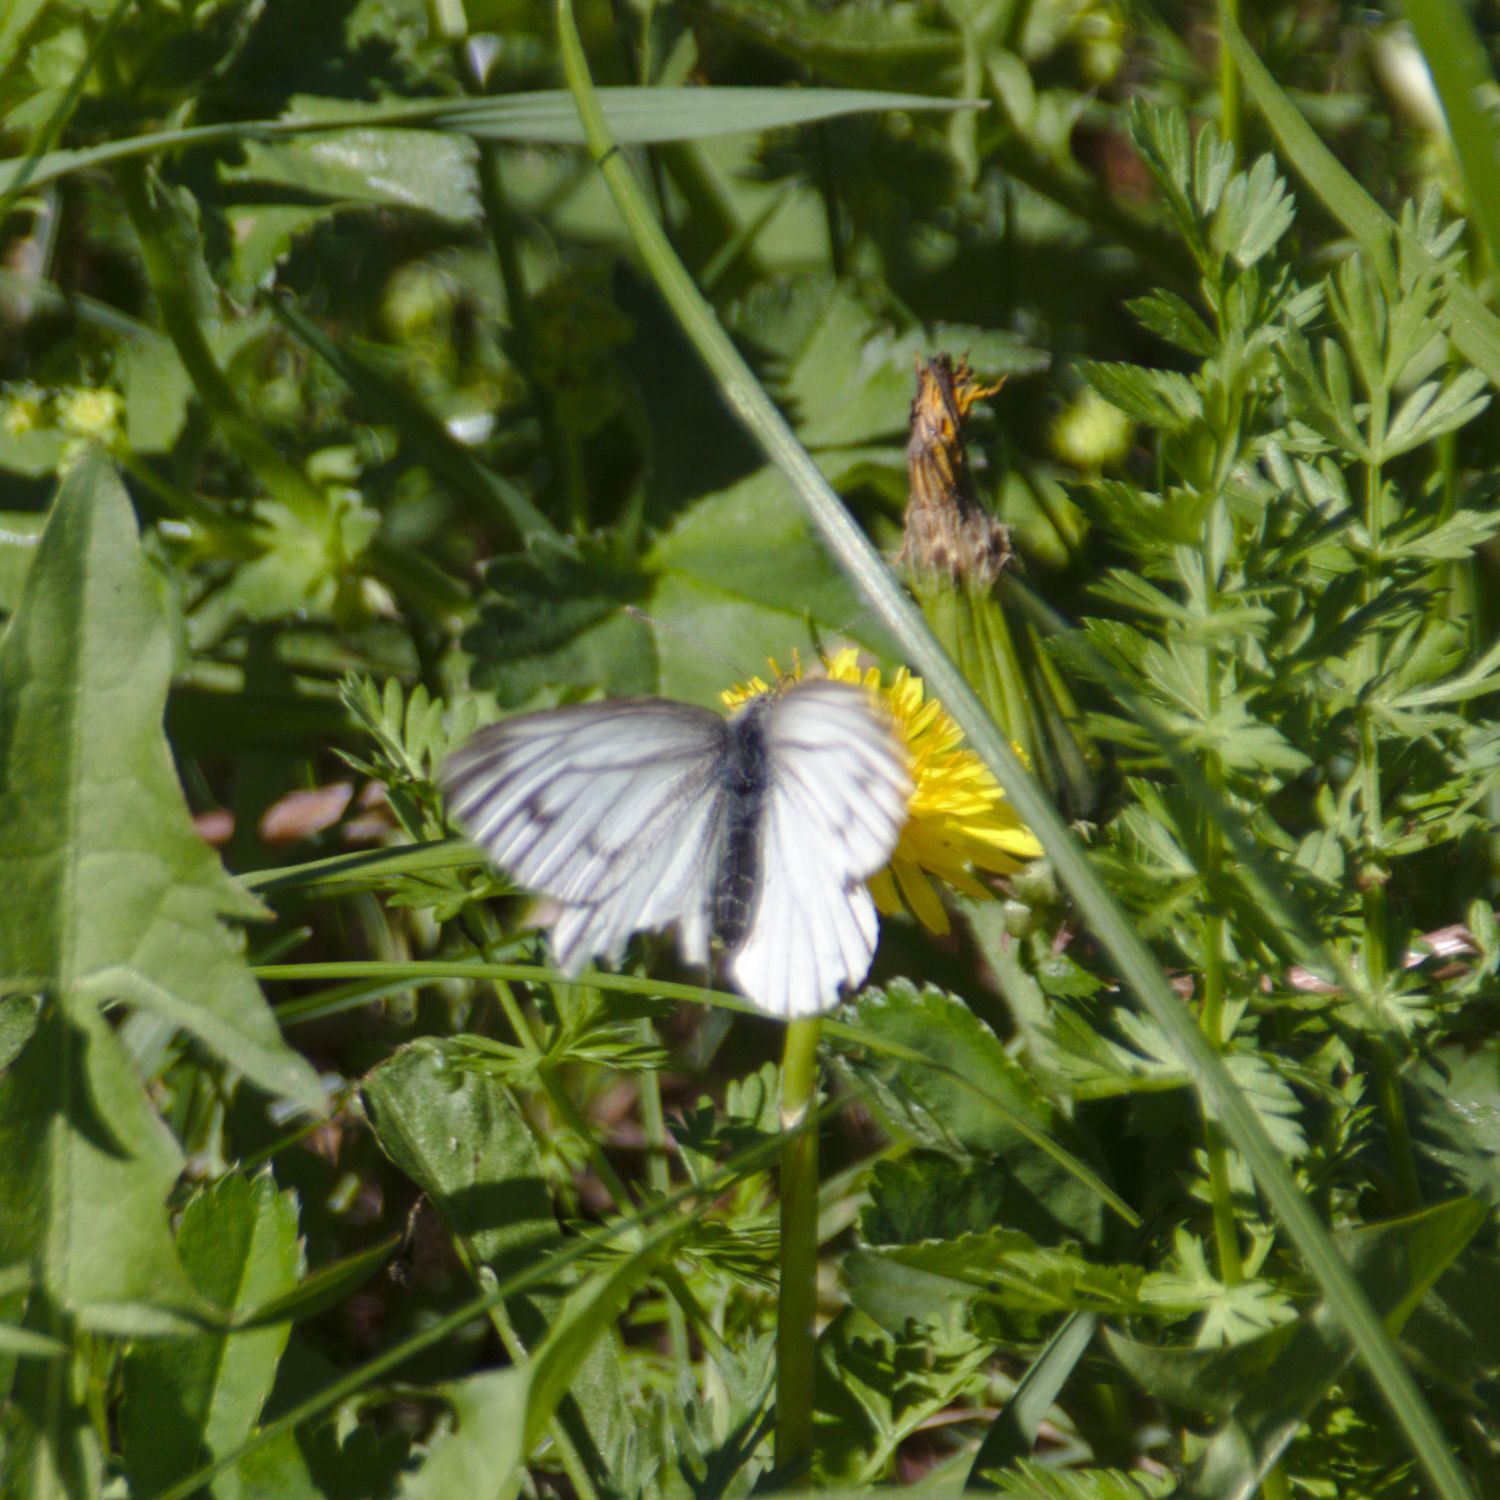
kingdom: Animalia
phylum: Arthropoda
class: Insecta
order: Lepidoptera
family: Pieridae
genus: Pieris
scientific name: Pieris napi
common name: Green-veined white
